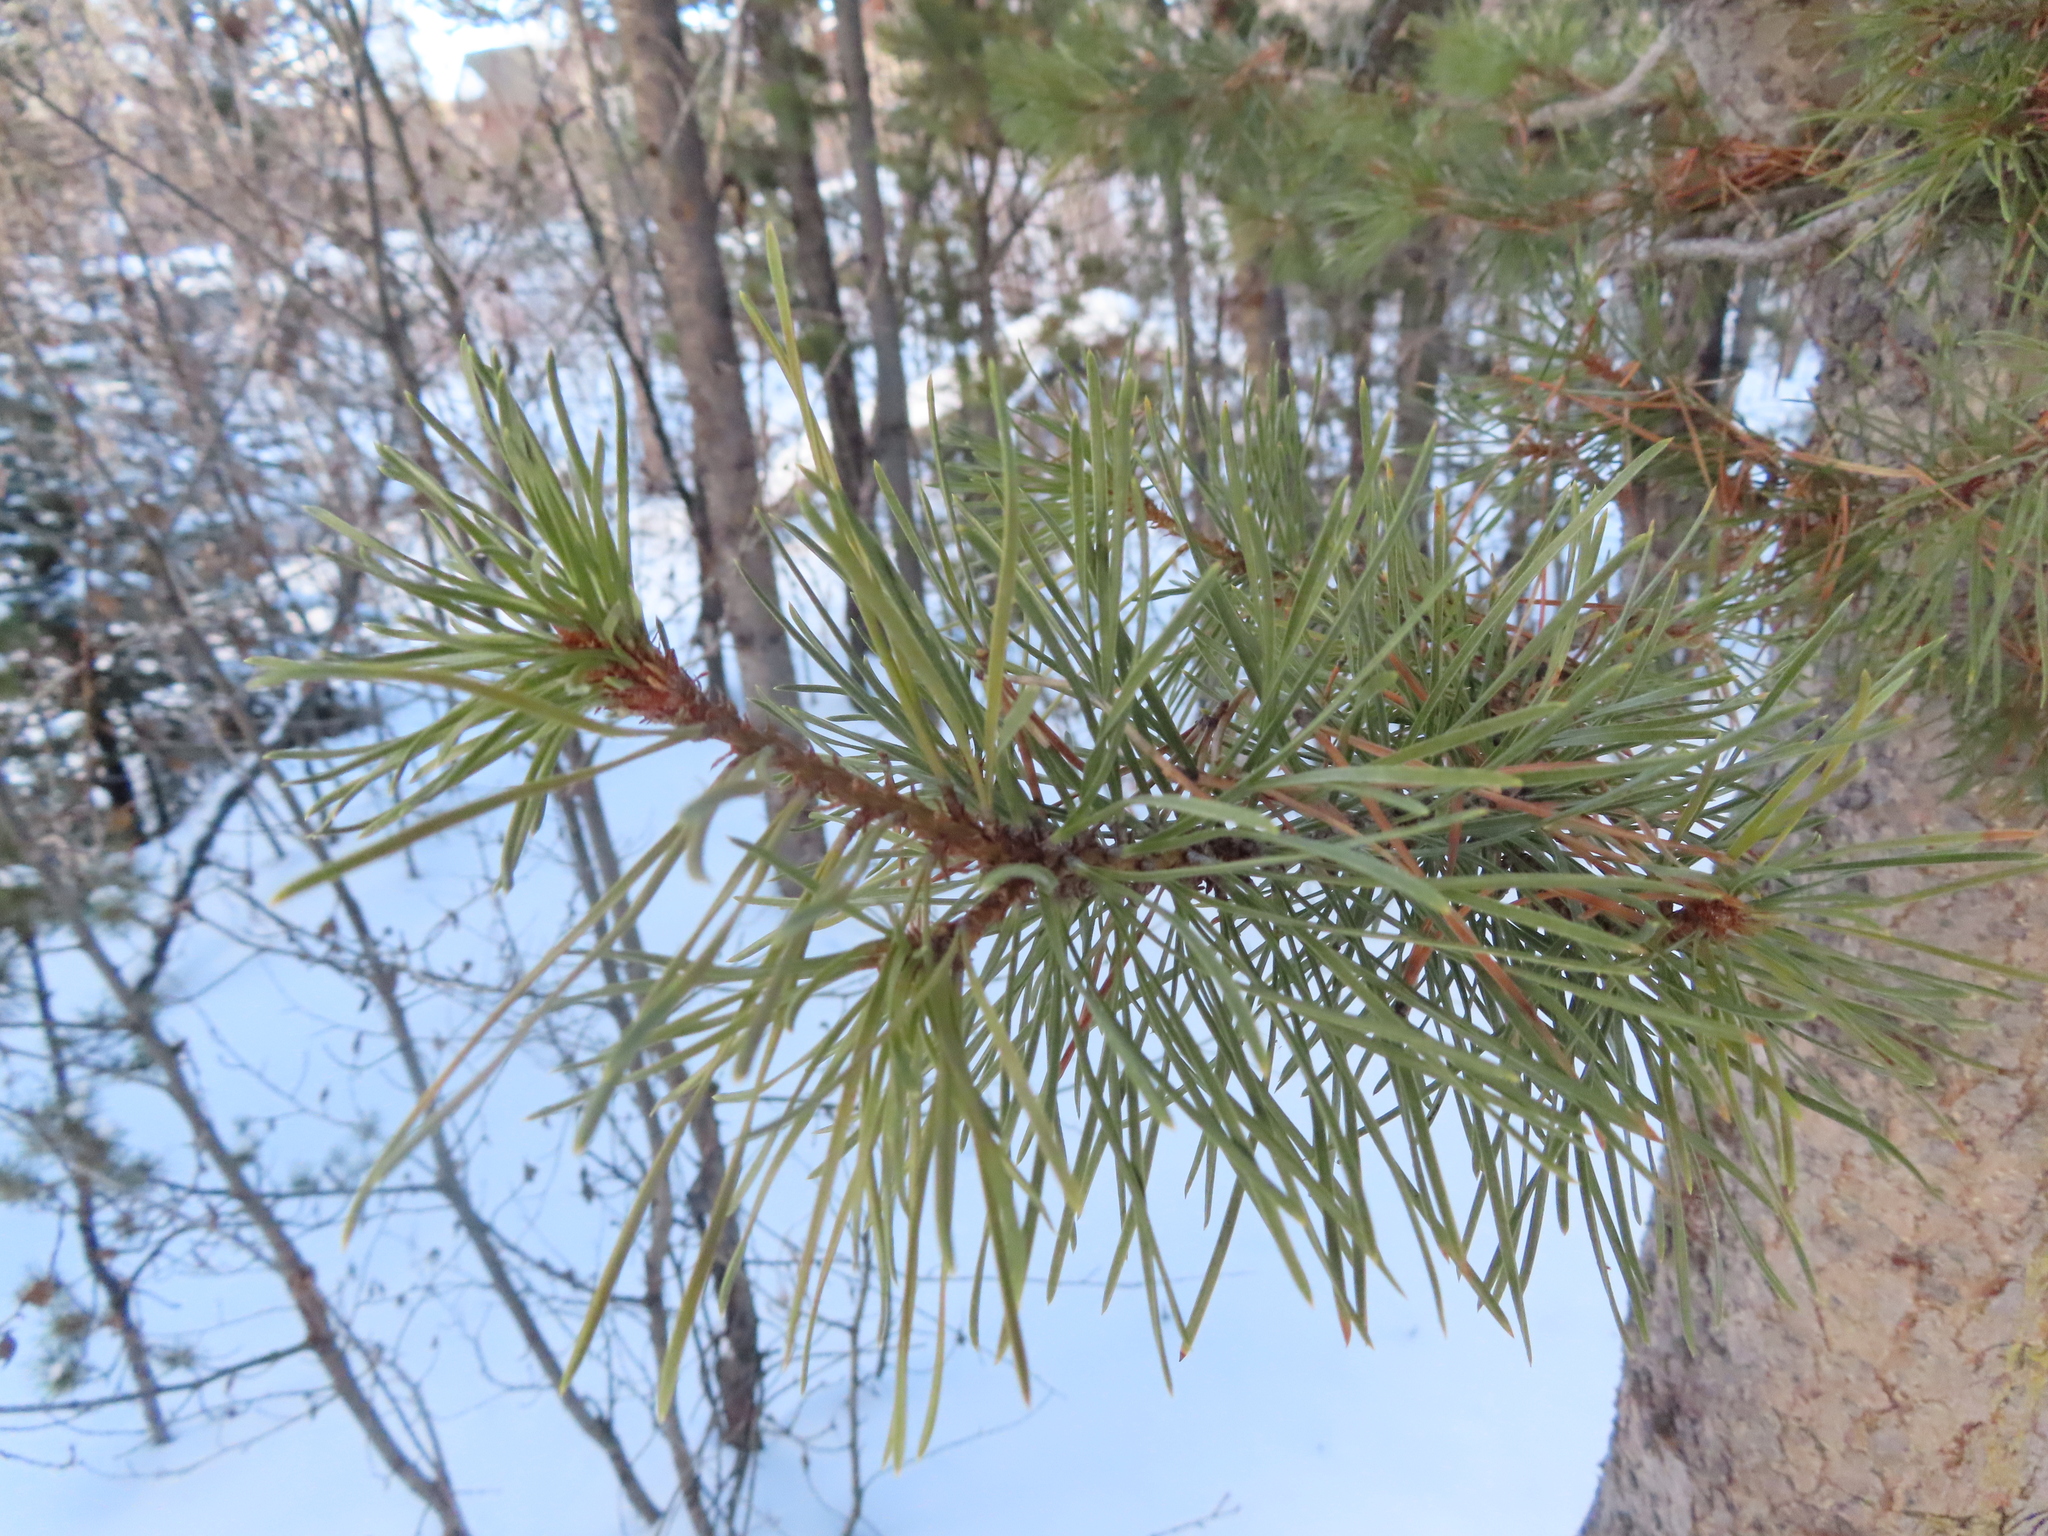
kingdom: Plantae
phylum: Tracheophyta
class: Pinopsida
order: Pinales
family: Pinaceae
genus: Pinus
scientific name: Pinus contorta
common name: Lodgepole pine
